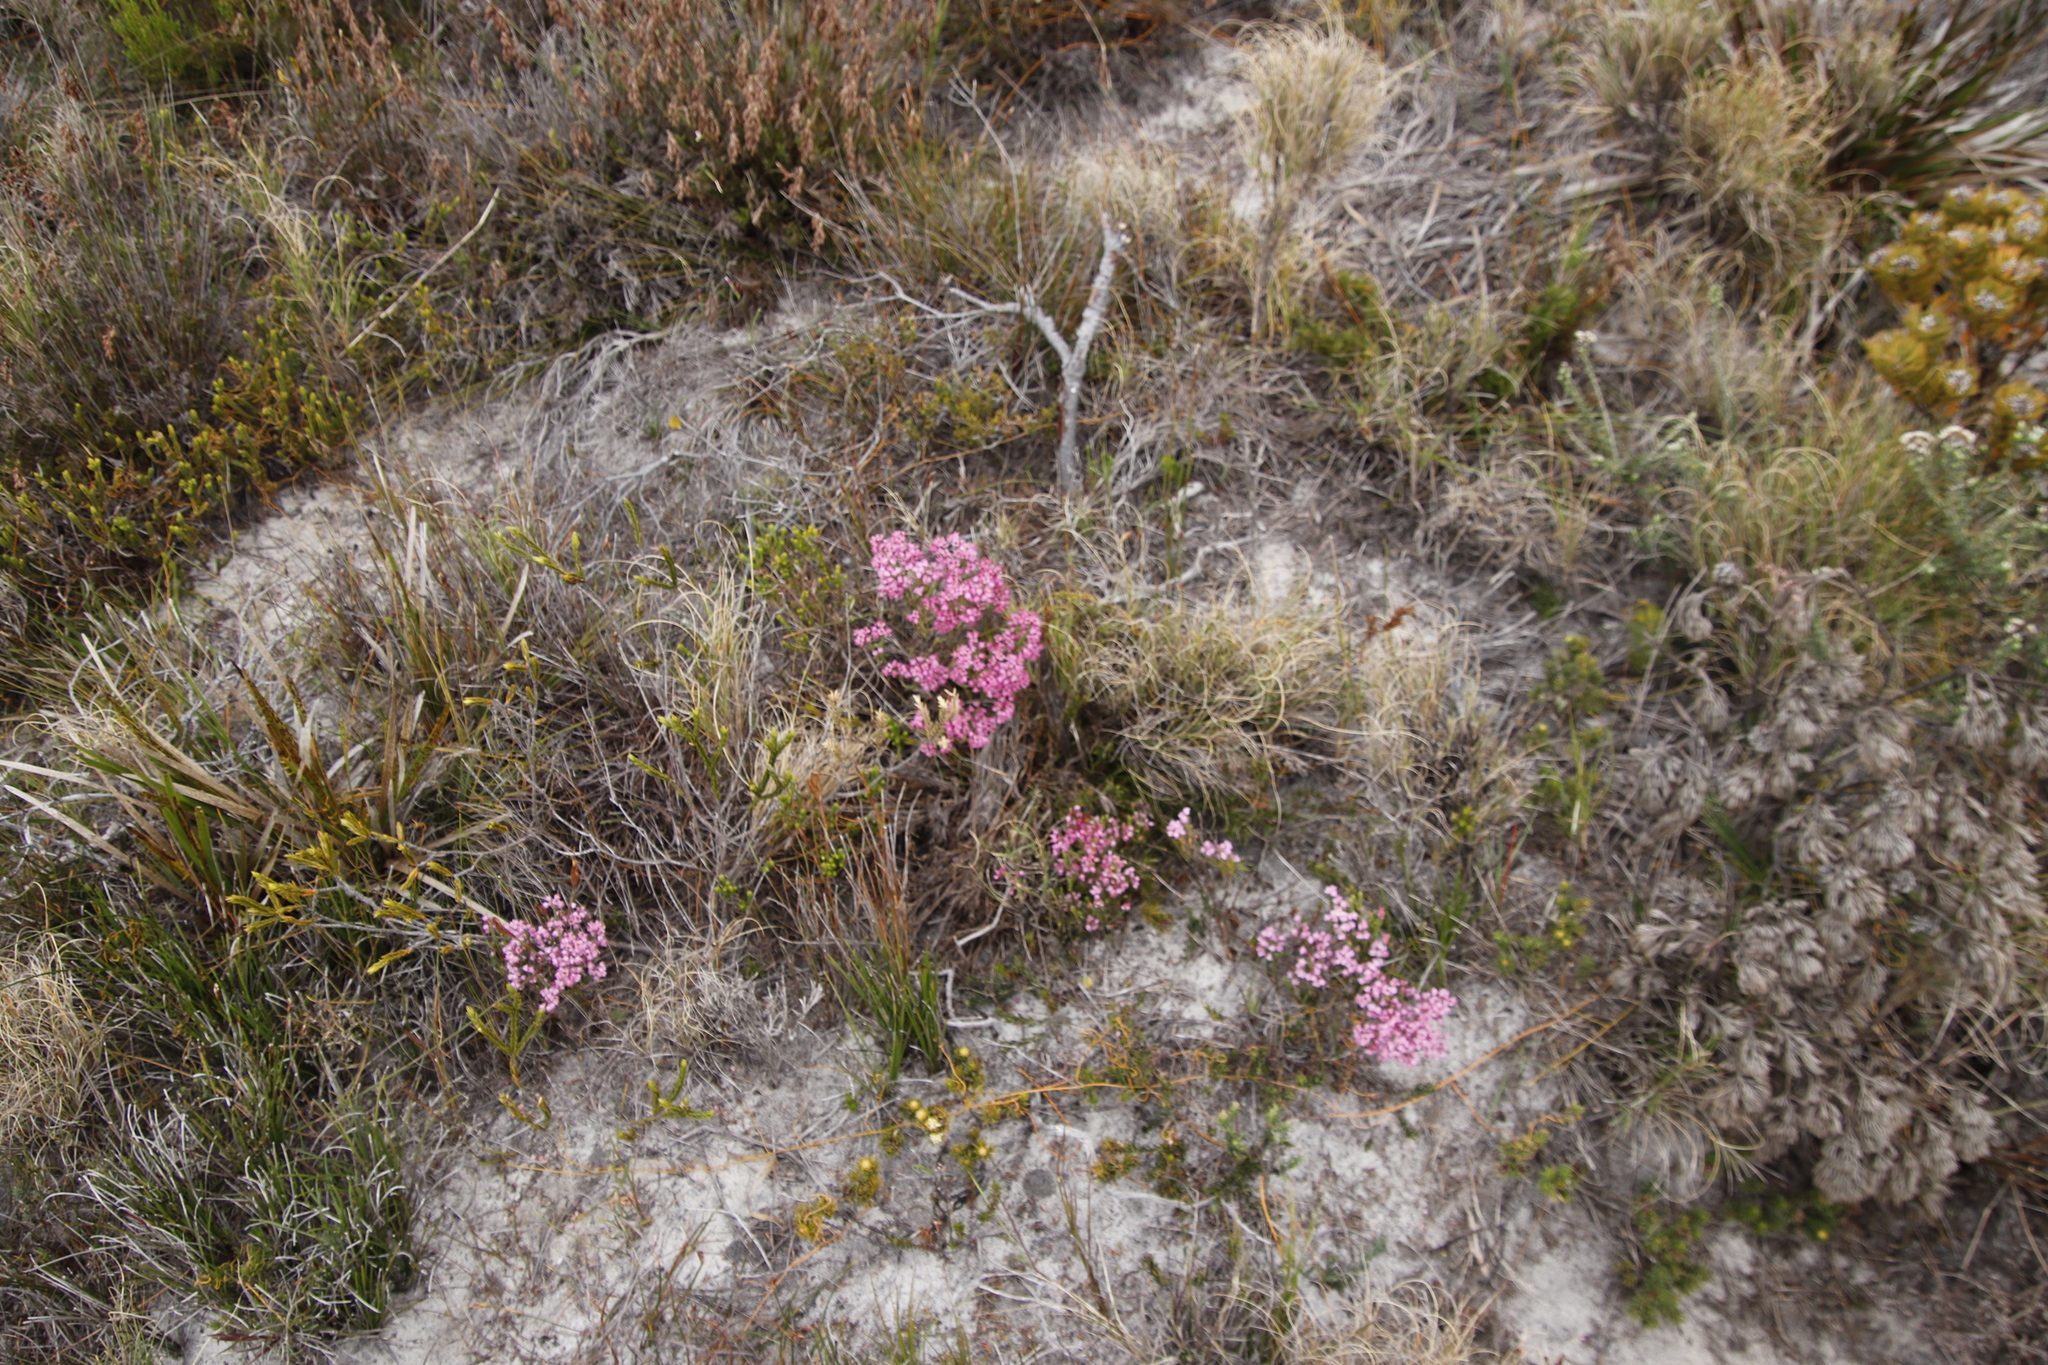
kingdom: Plantae
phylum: Tracheophyta
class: Magnoliopsida
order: Ericales
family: Ericaceae
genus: Erica
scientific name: Erica corifolia
